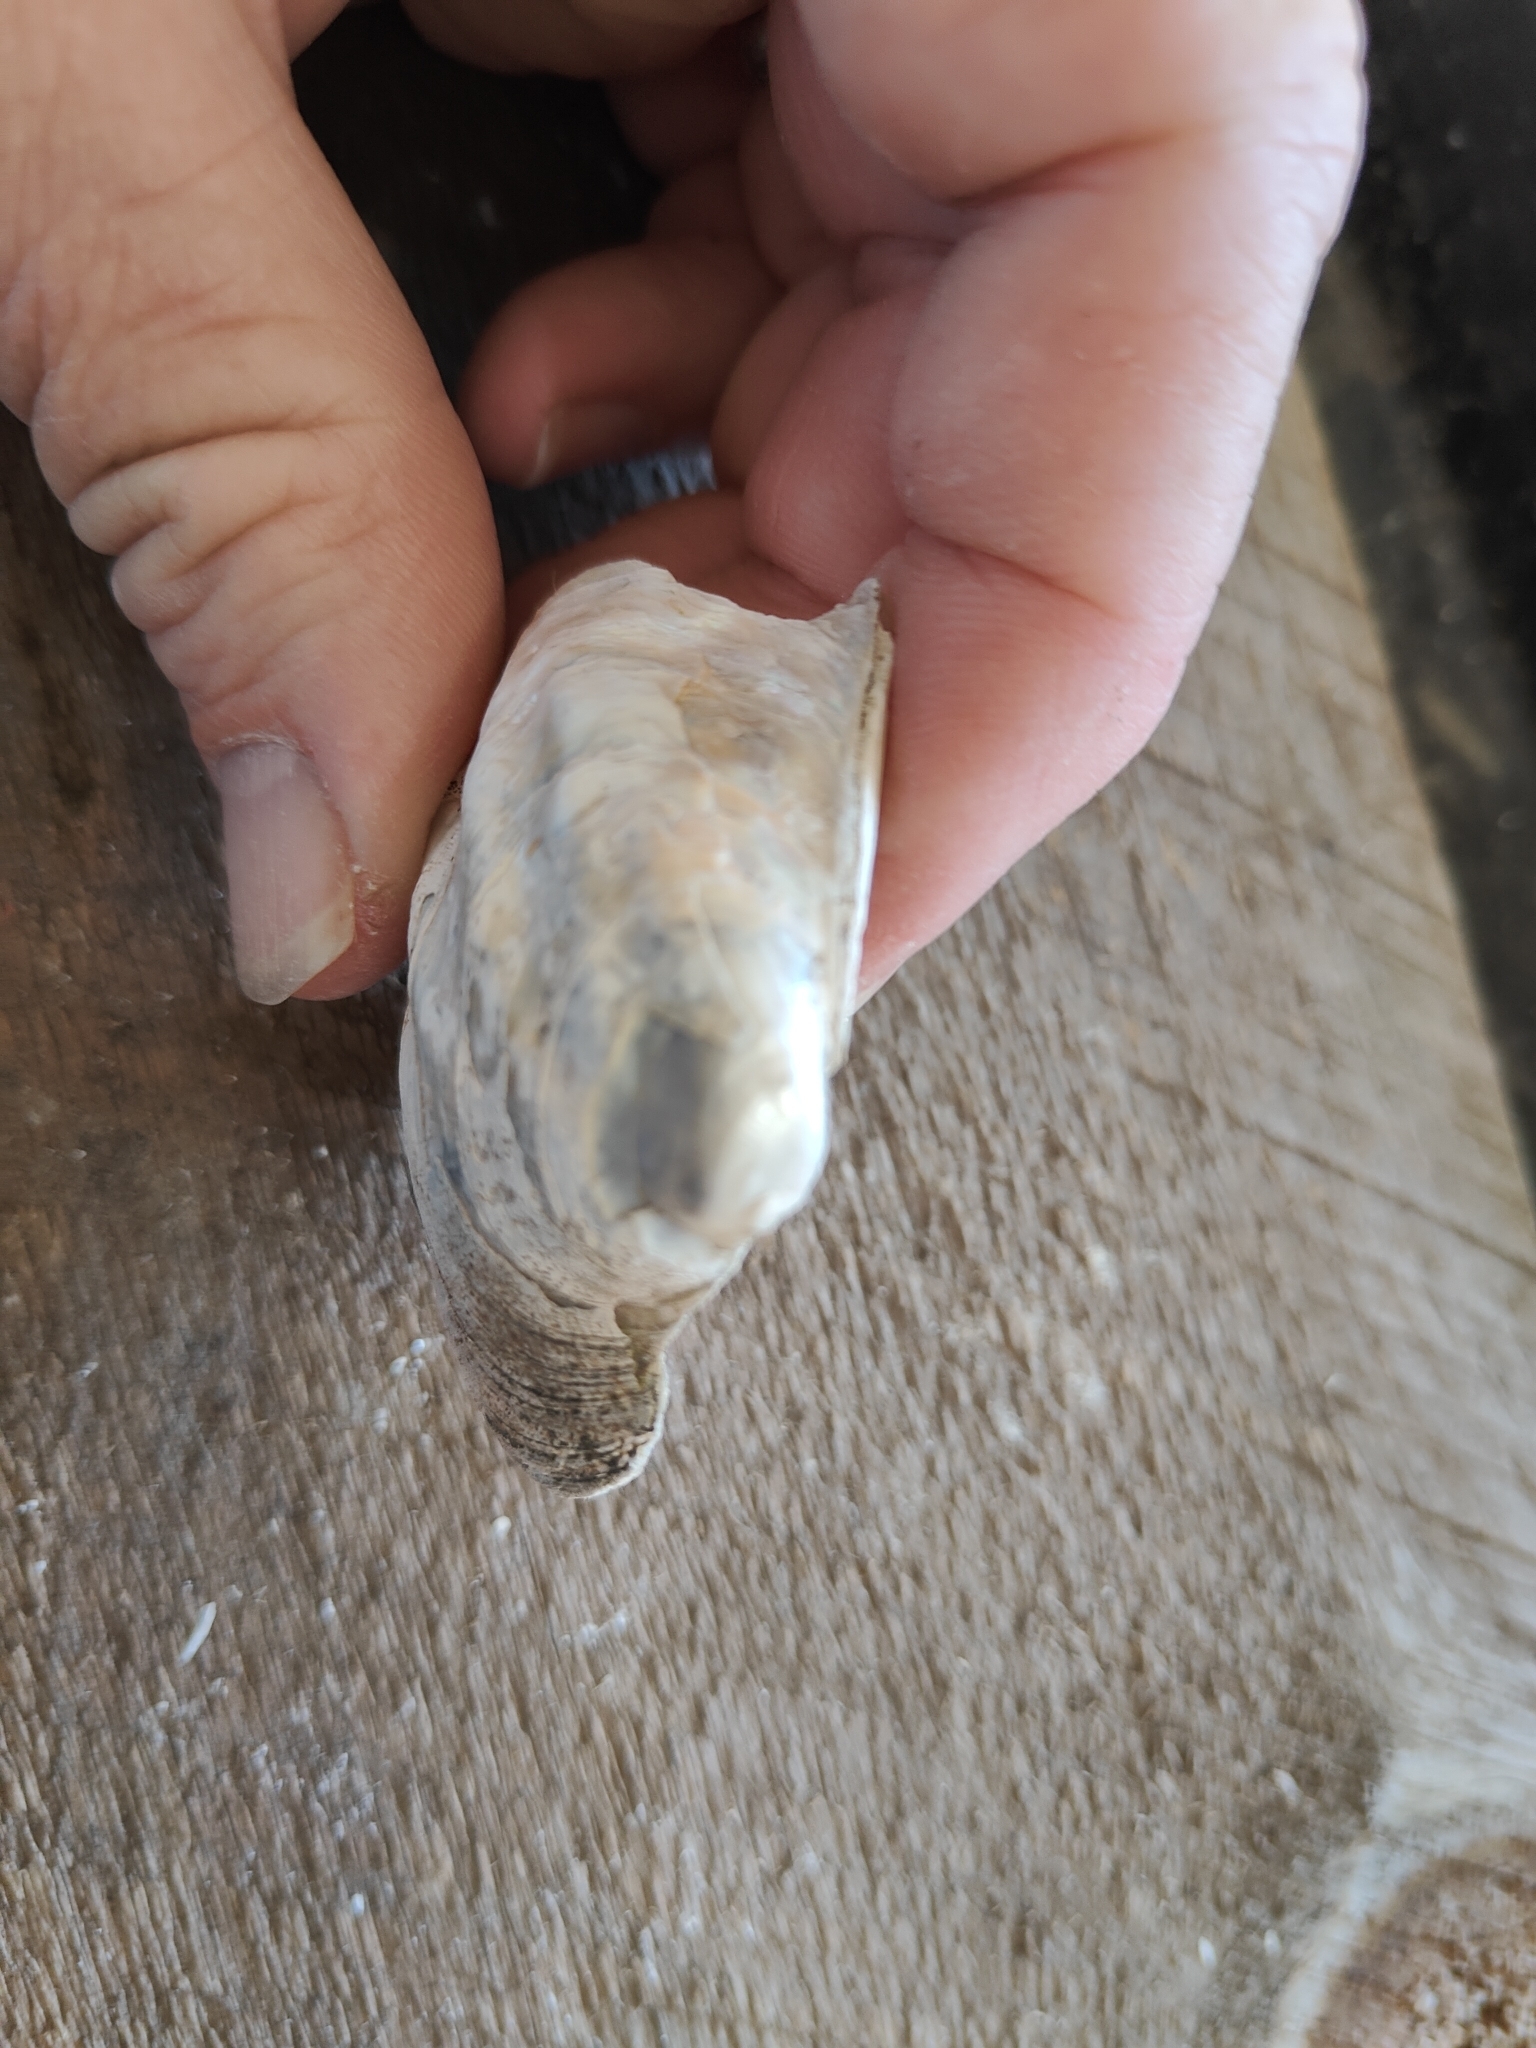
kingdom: Animalia
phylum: Mollusca
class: Bivalvia
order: Unionida
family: Unionidae
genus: Amblema
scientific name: Amblema plicata
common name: Threeridge
